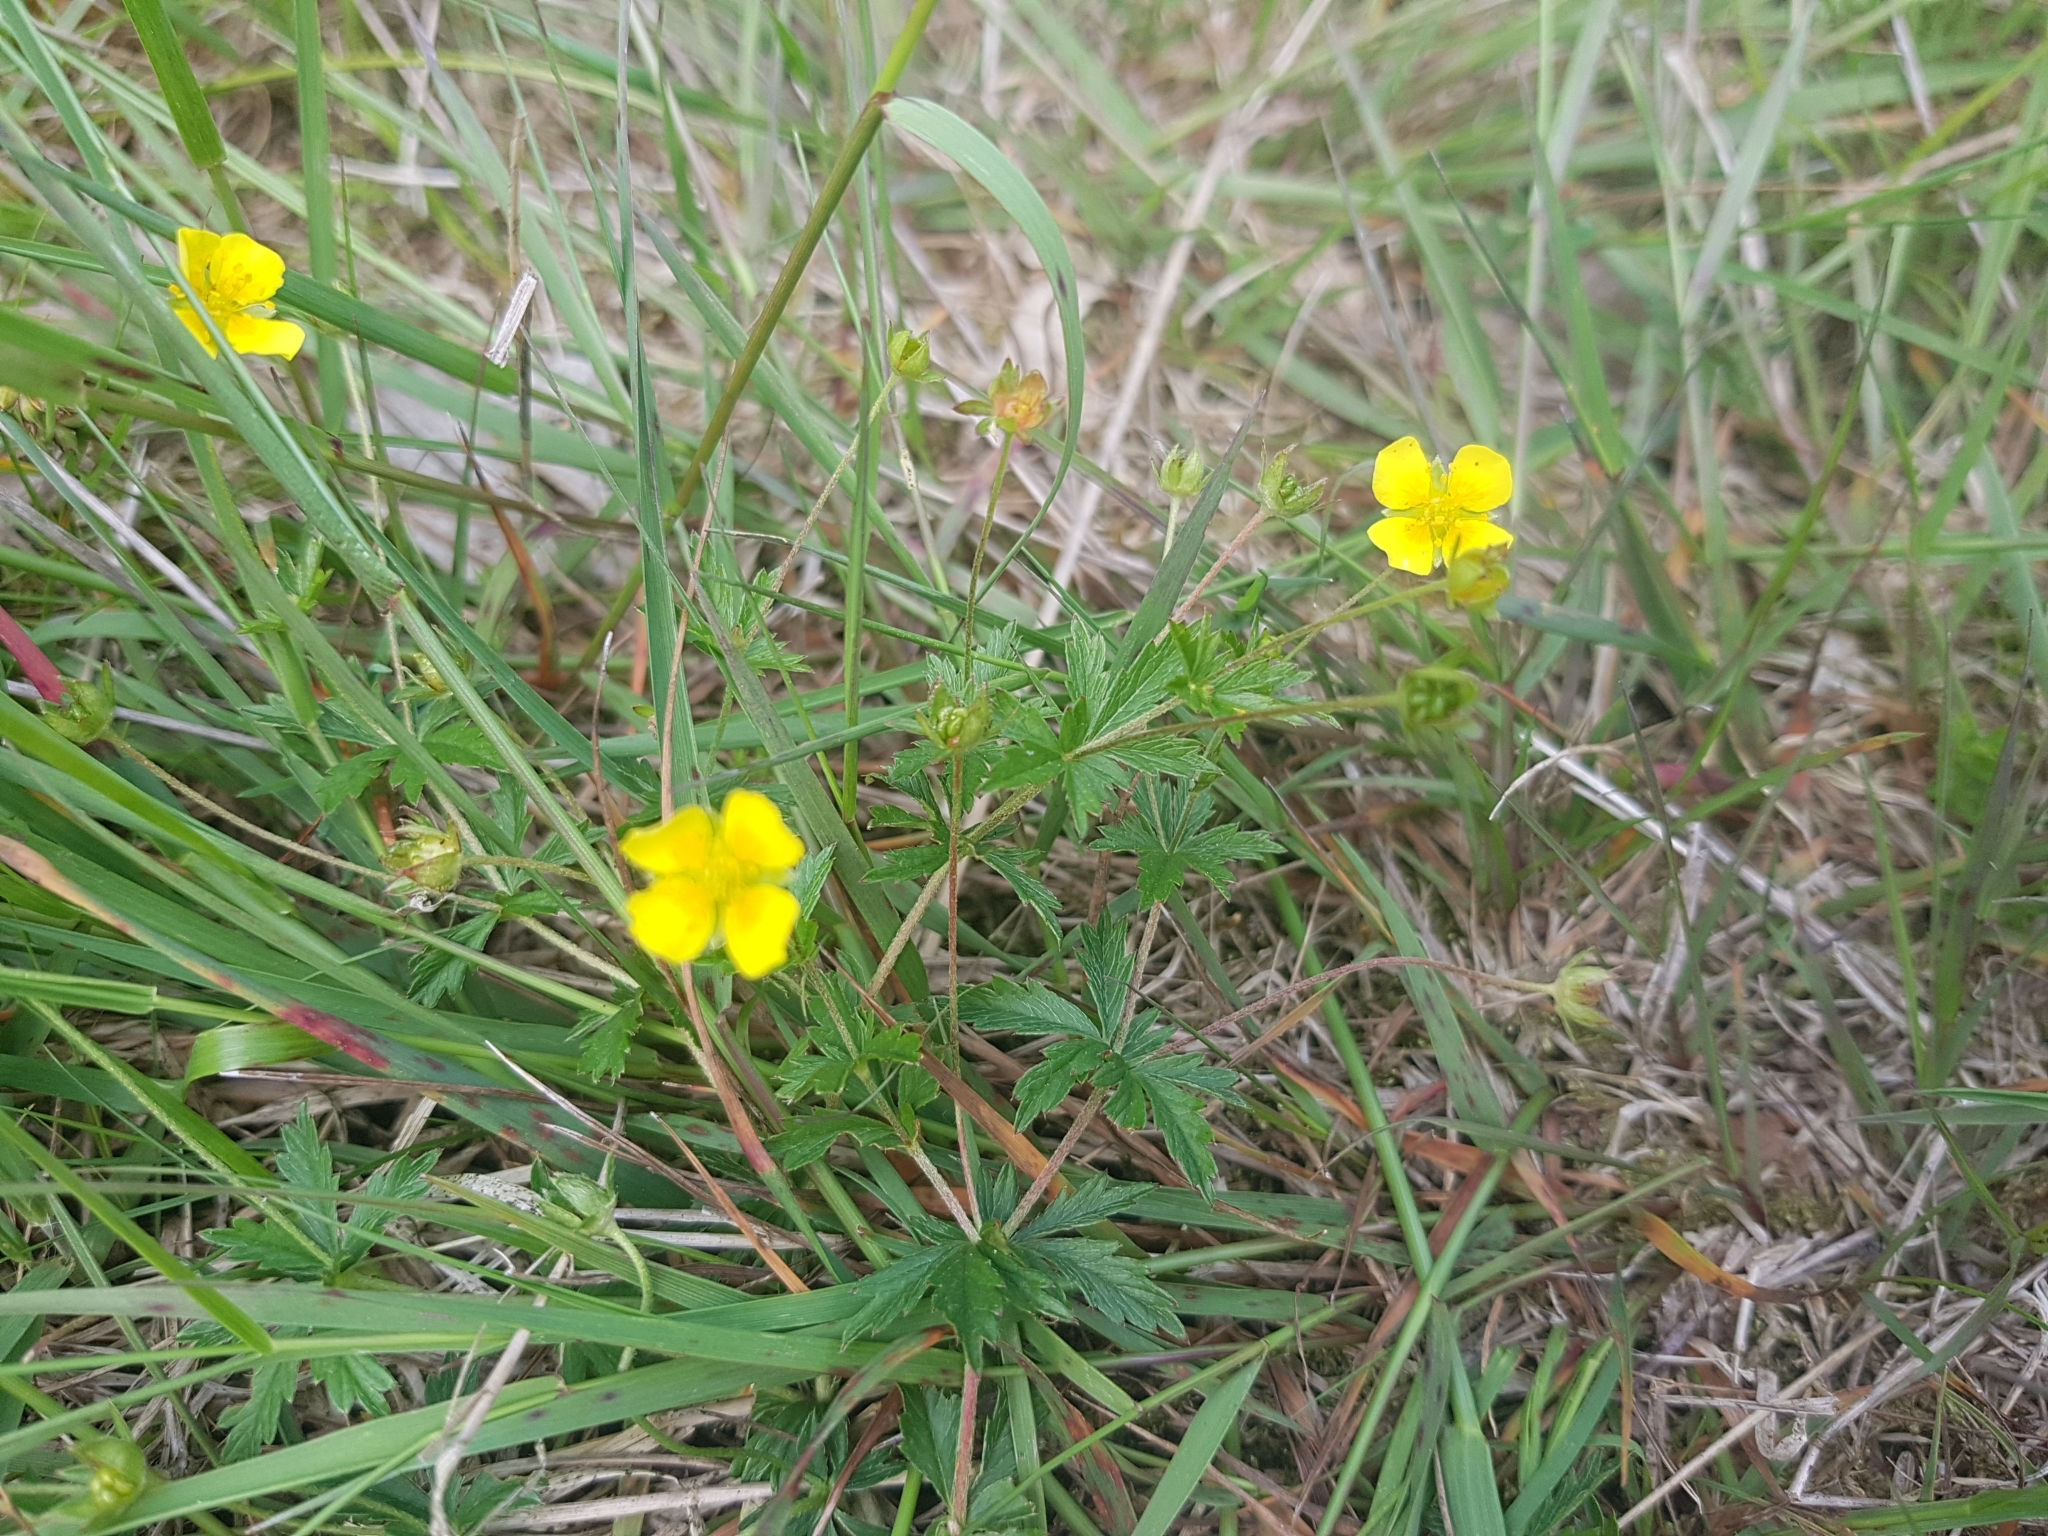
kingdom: Plantae
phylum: Tracheophyta
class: Magnoliopsida
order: Rosales
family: Rosaceae
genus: Potentilla
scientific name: Potentilla erecta
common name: Tormentil
